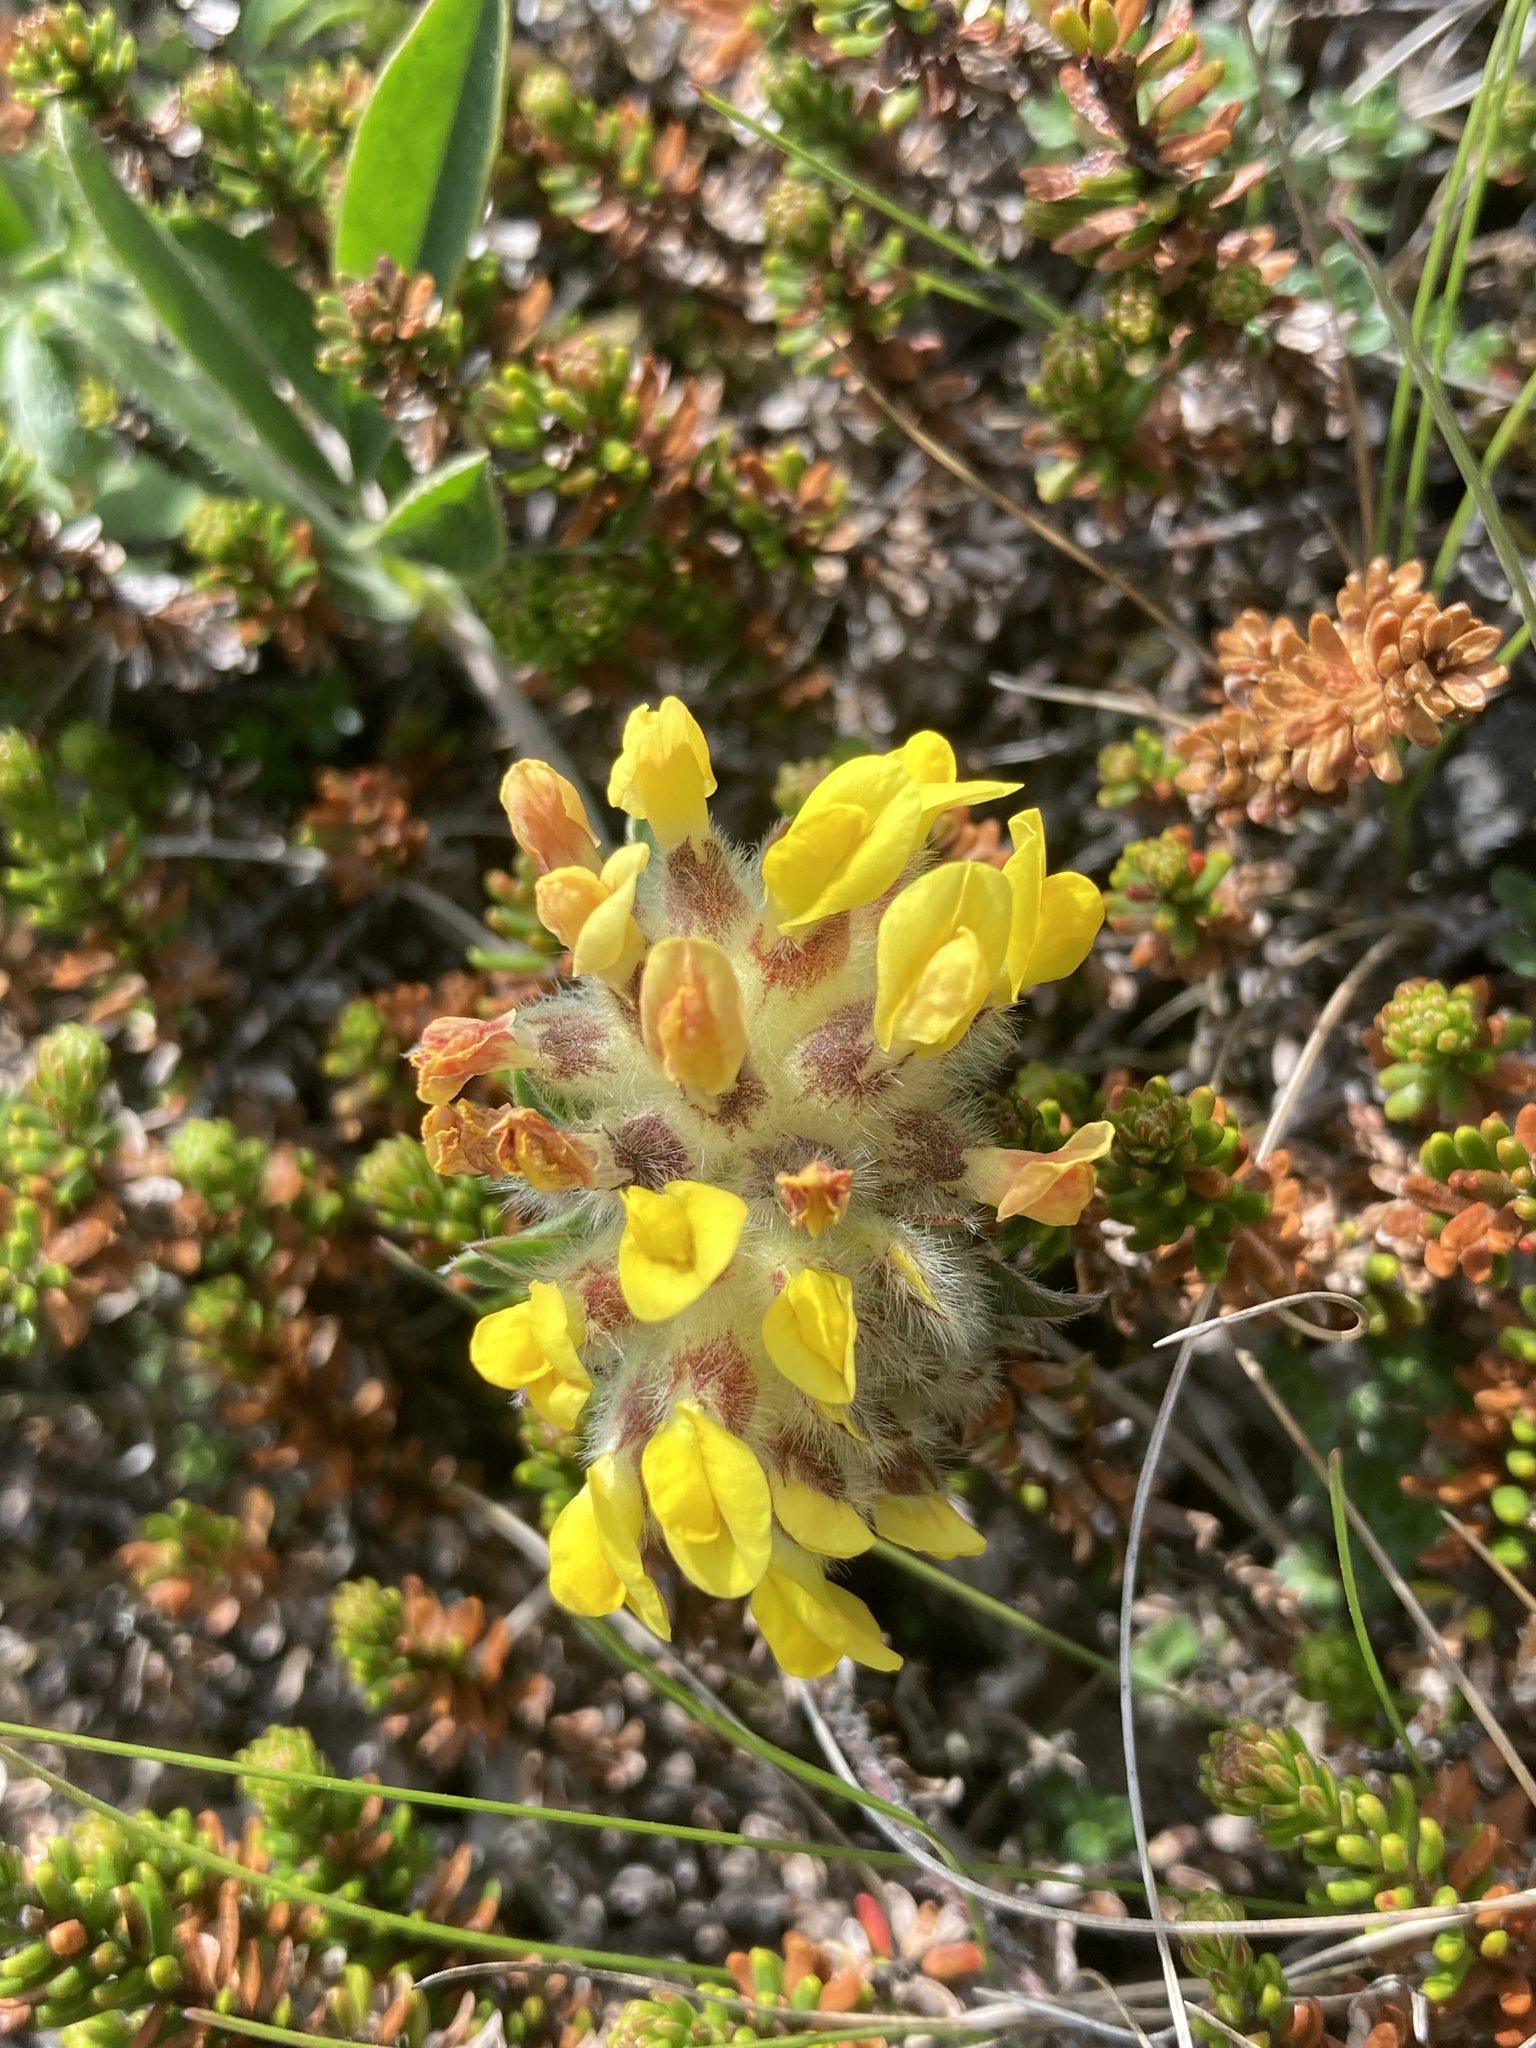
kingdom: Plantae
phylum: Tracheophyta
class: Magnoliopsida
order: Fabales
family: Fabaceae
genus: Anthyllis
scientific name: Anthyllis vulneraria
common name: Kidney vetch
